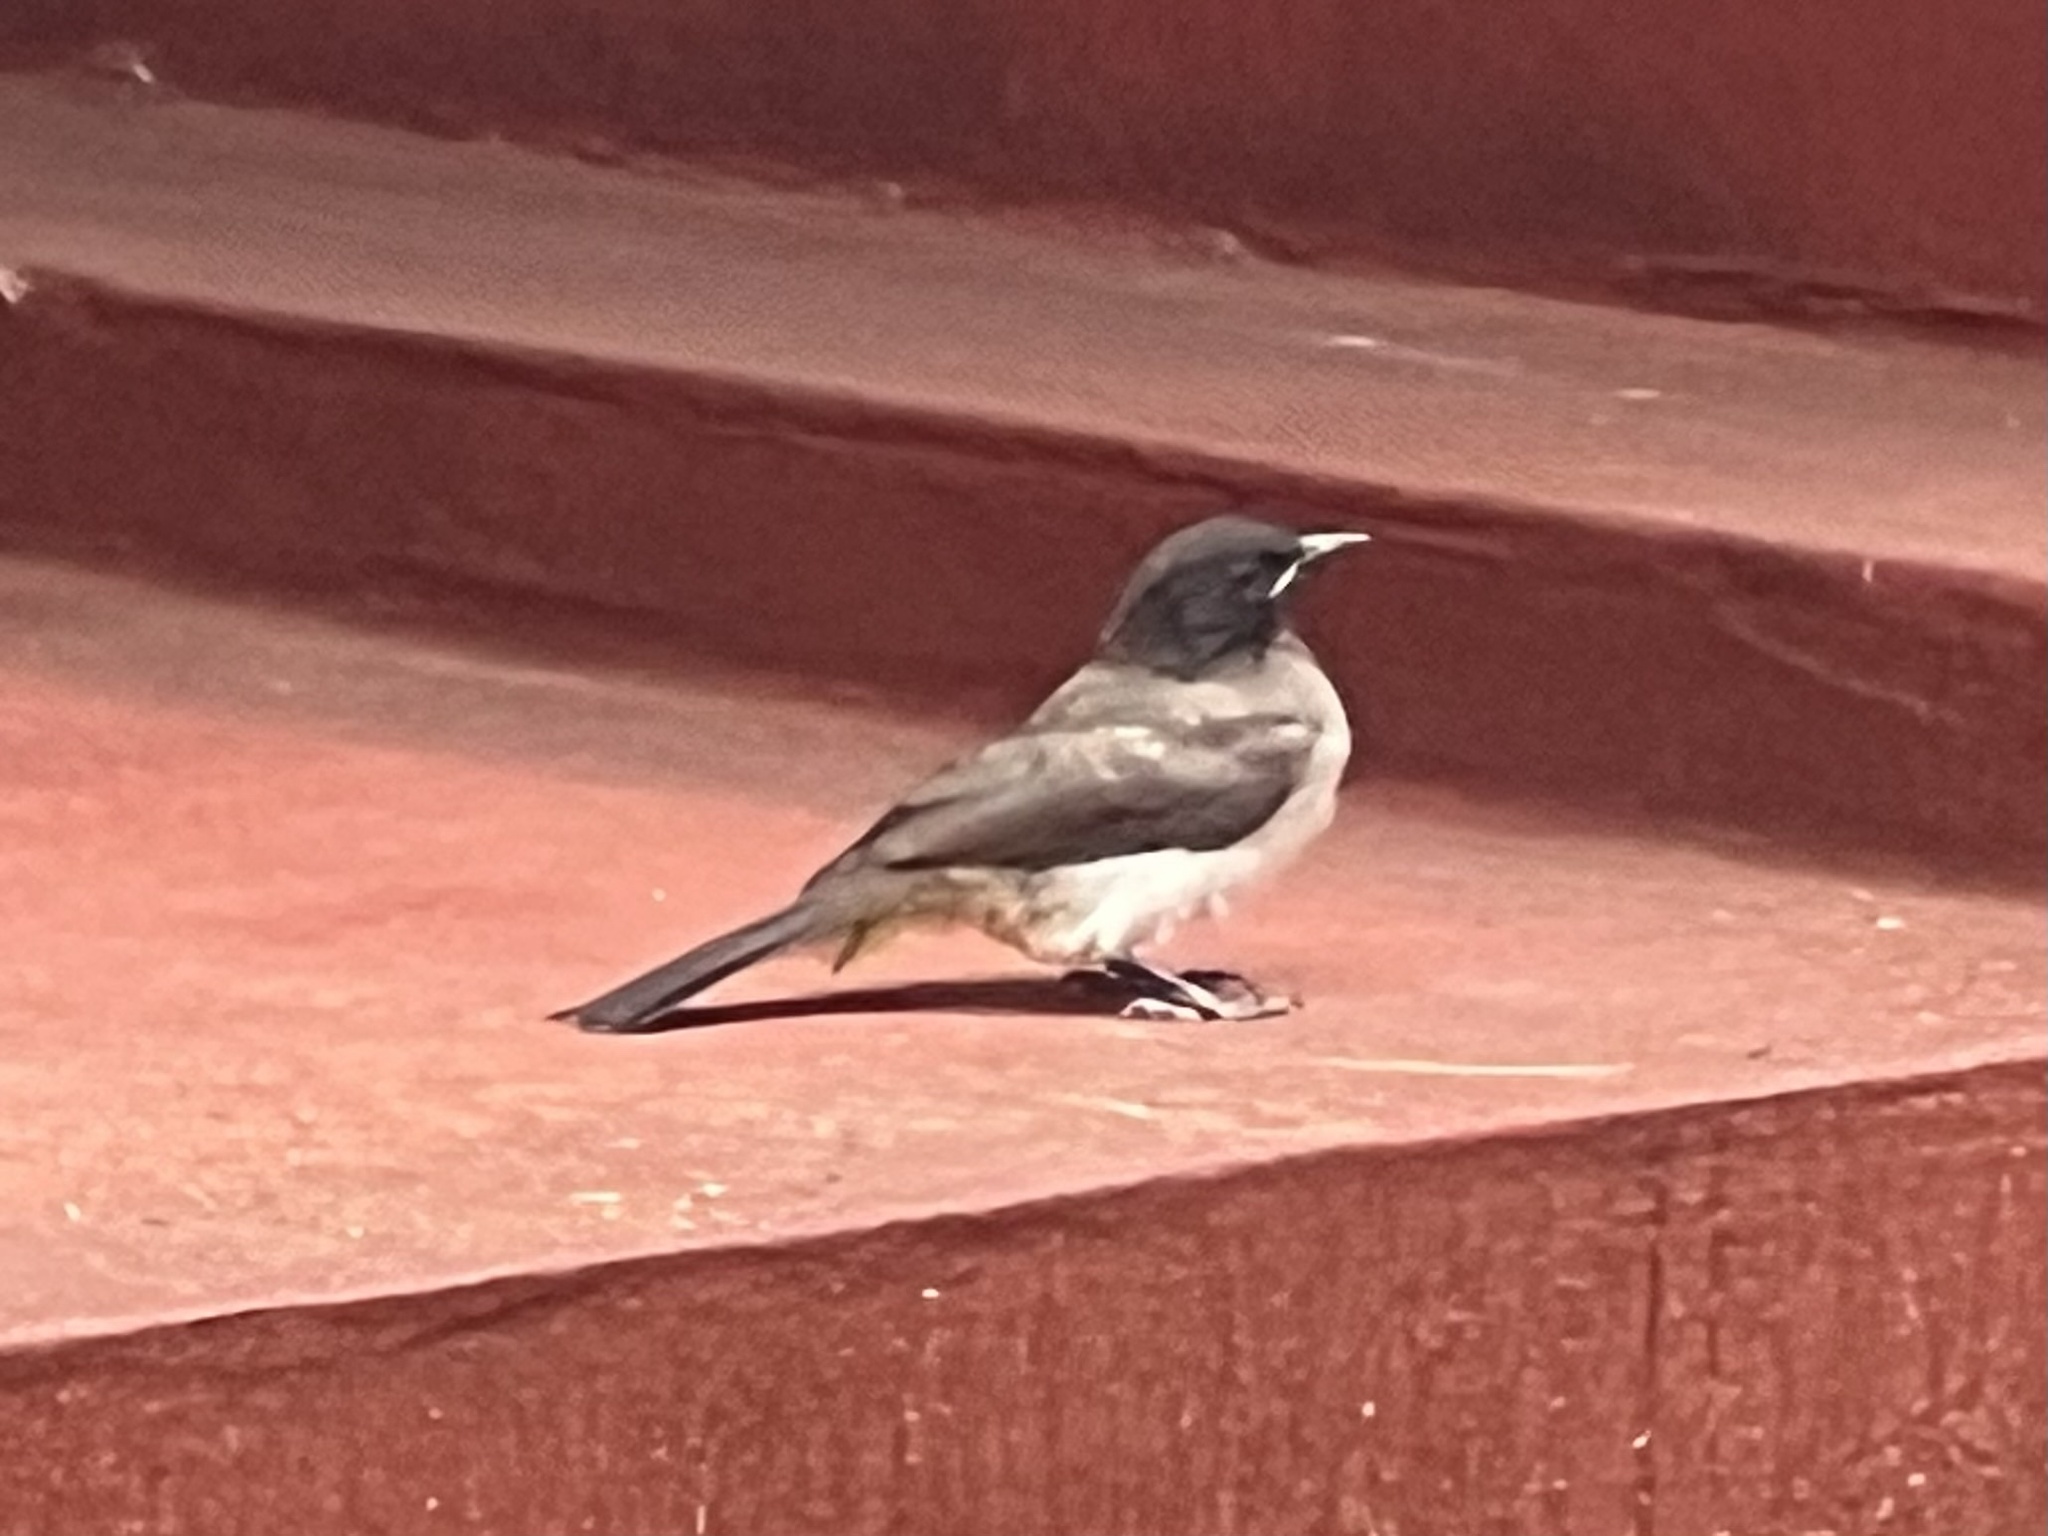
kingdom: Animalia
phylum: Chordata
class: Aves
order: Passeriformes
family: Pycnonotidae
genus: Pycnonotus
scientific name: Pycnonotus barbatus
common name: Common bulbul
